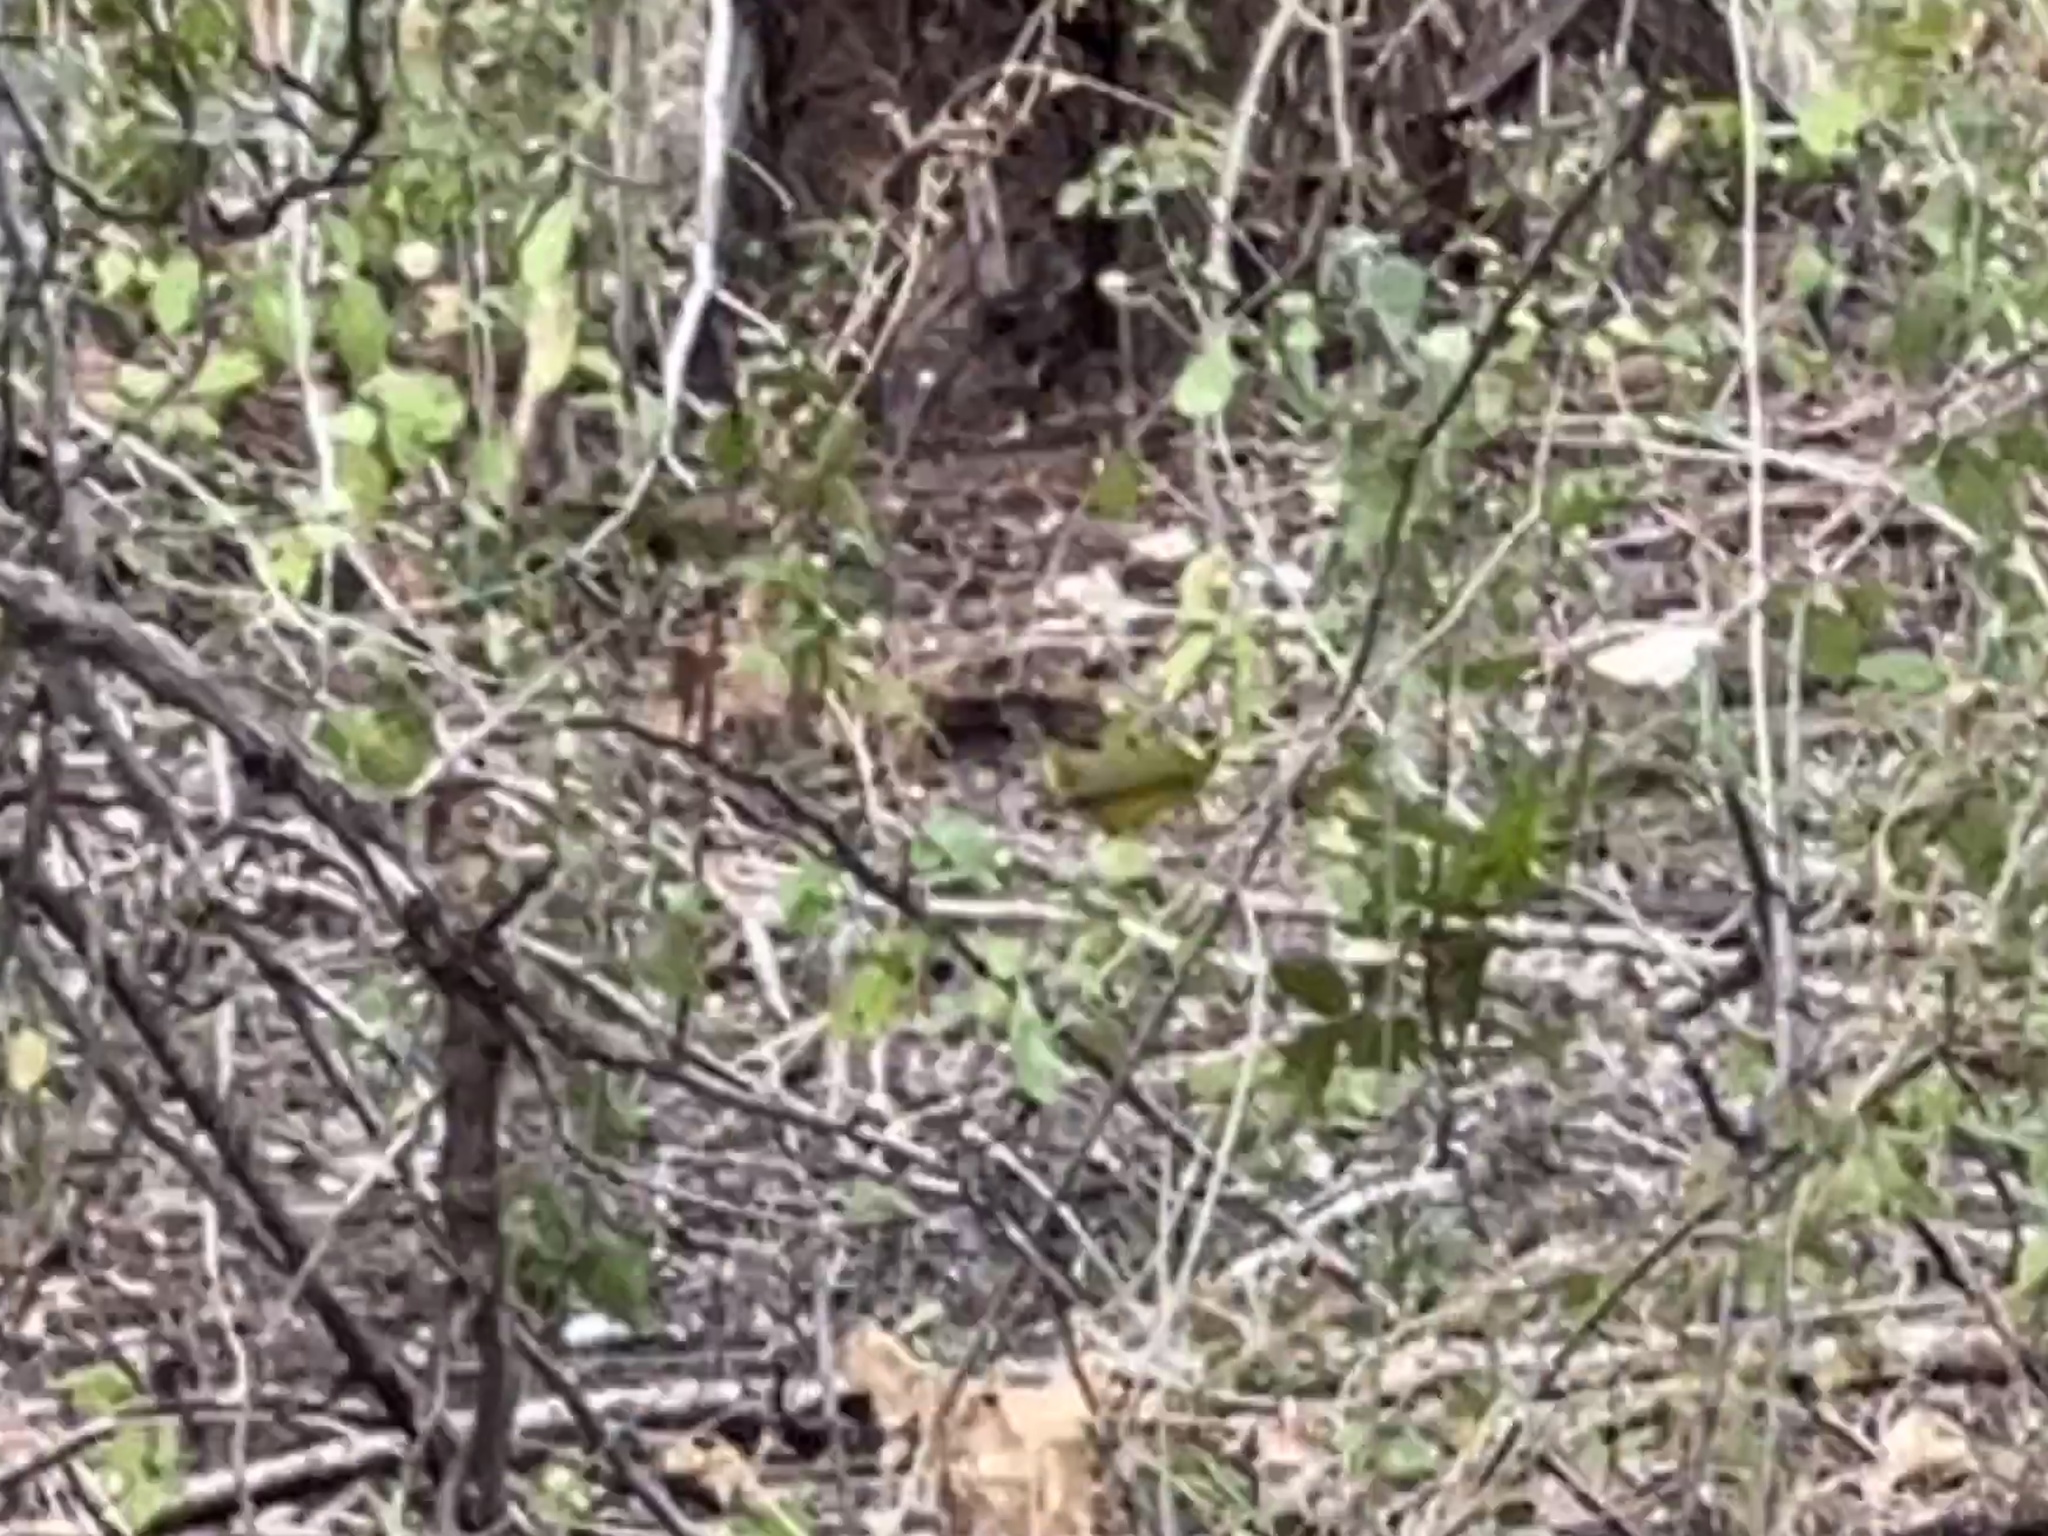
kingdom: Animalia
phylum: Chordata
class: Aves
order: Passeriformes
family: Parulidae
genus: Cardellina
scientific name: Cardellina pusilla
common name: Wilson's warbler
